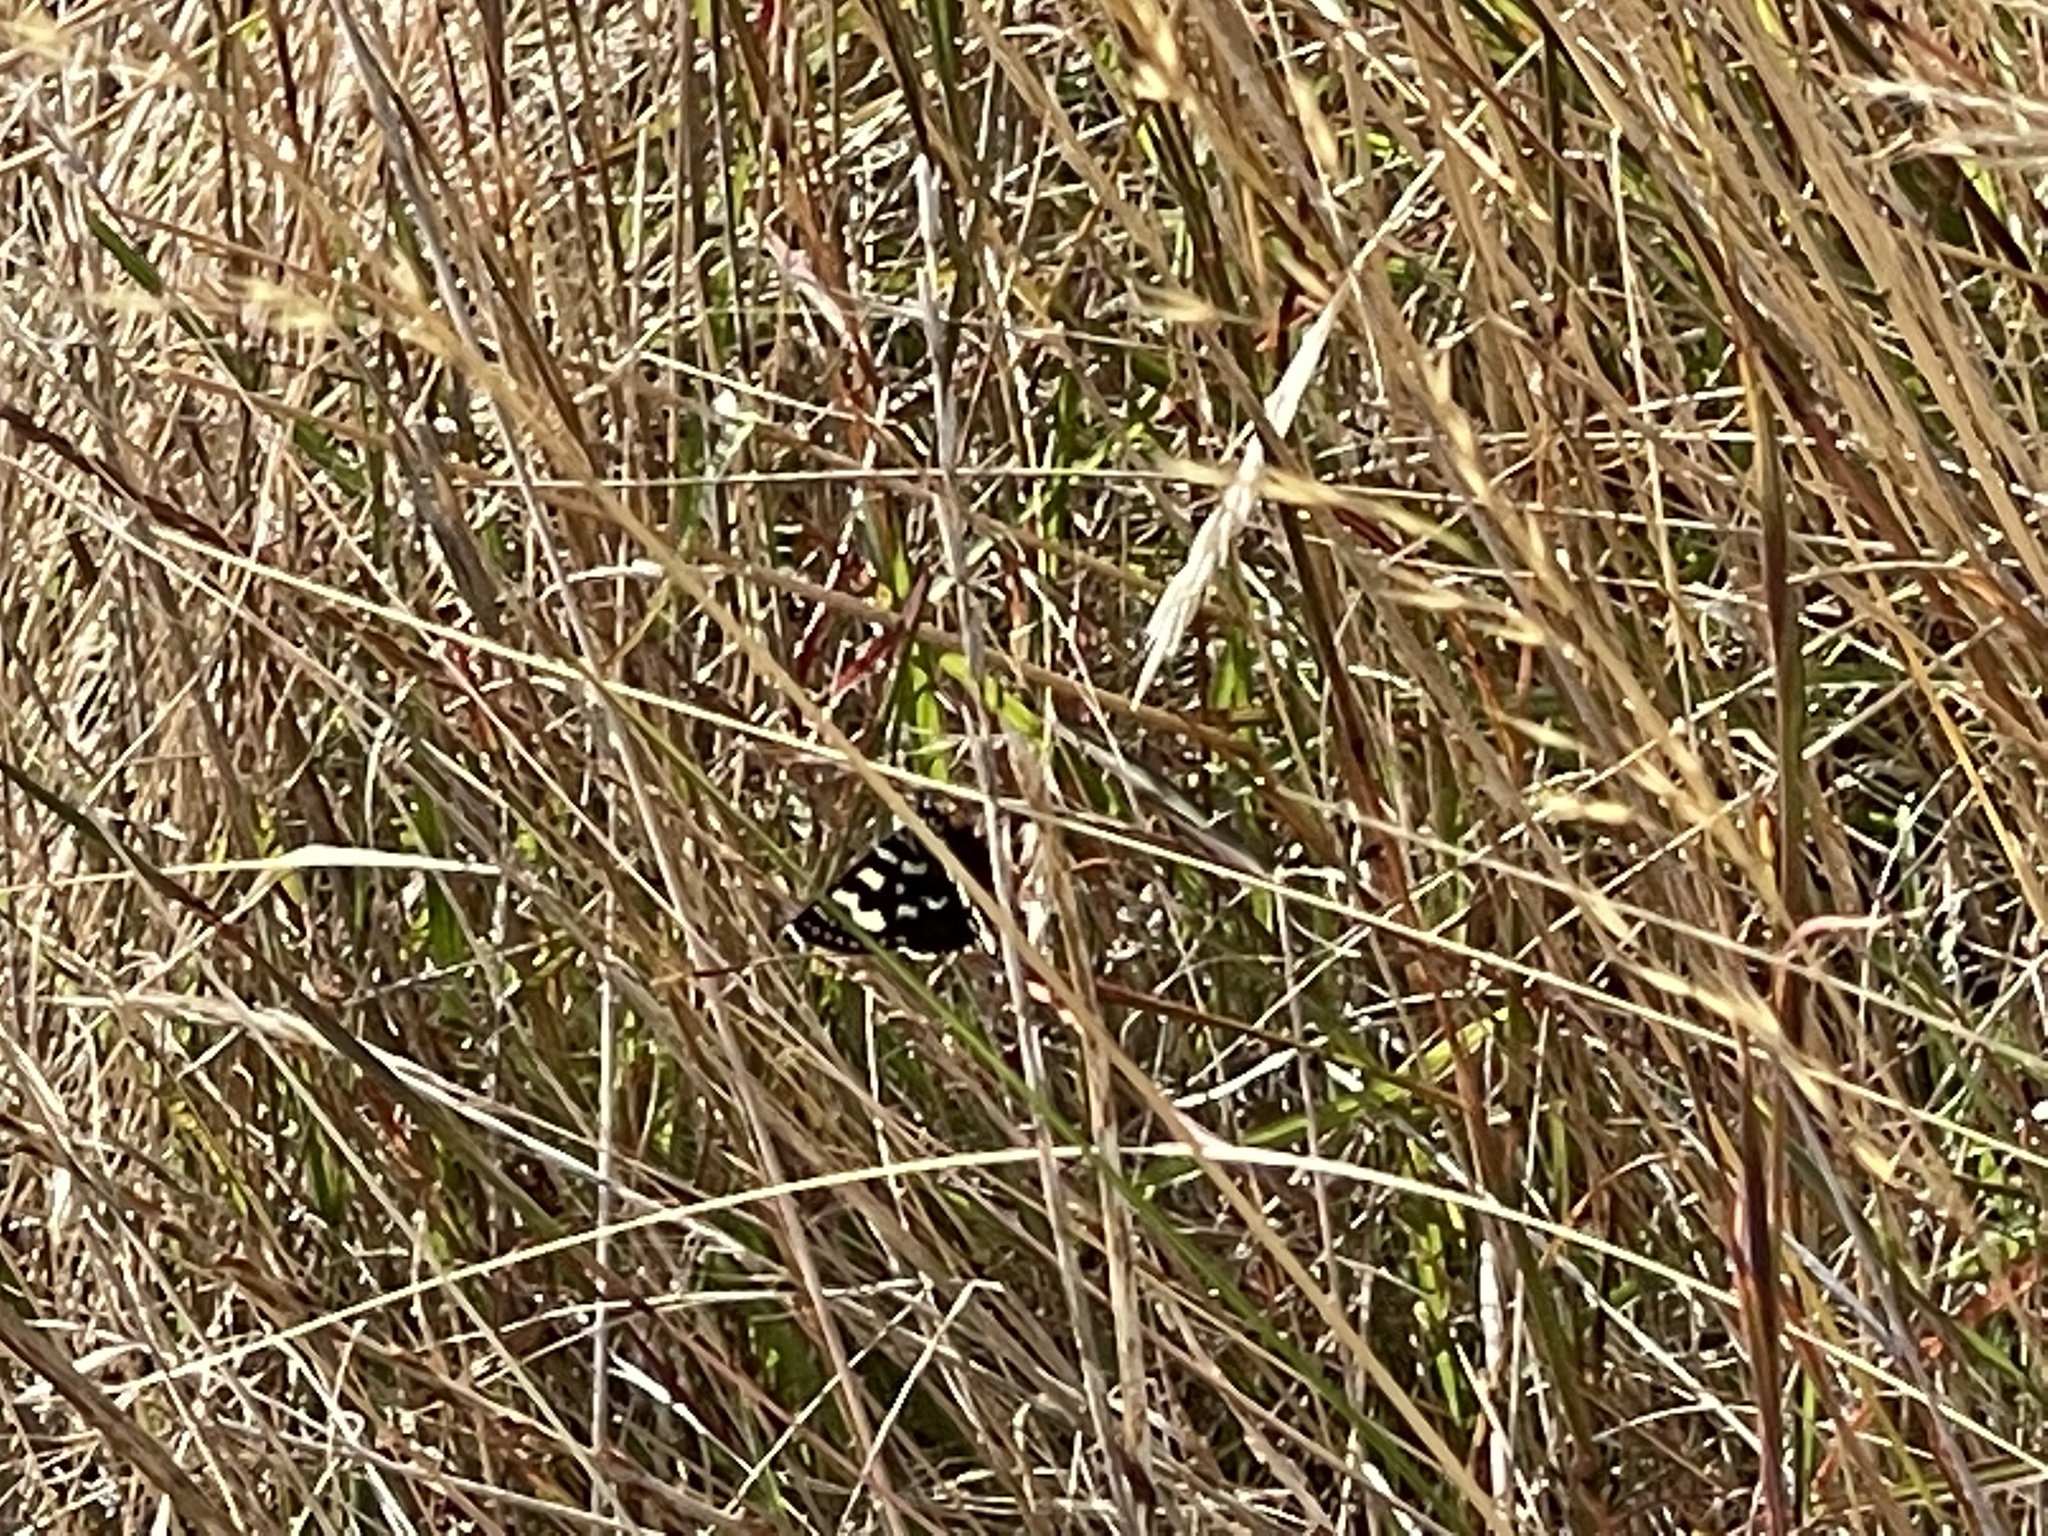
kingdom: Animalia
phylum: Arthropoda
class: Insecta
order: Lepidoptera
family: Noctuidae
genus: Phalaenoides
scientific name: Phalaenoides tristifica
